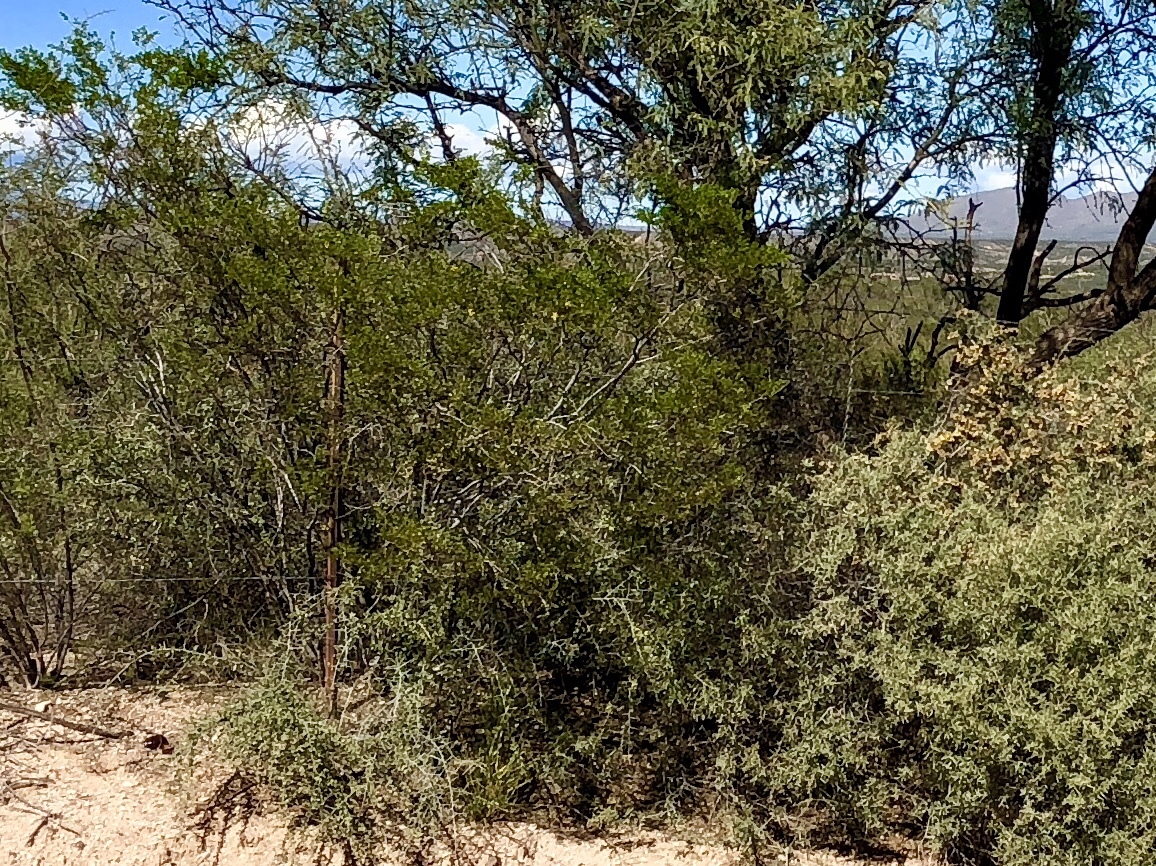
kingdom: Plantae
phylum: Tracheophyta
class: Magnoliopsida
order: Zygophyllales
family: Zygophyllaceae
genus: Larrea
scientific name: Larrea tridentata
